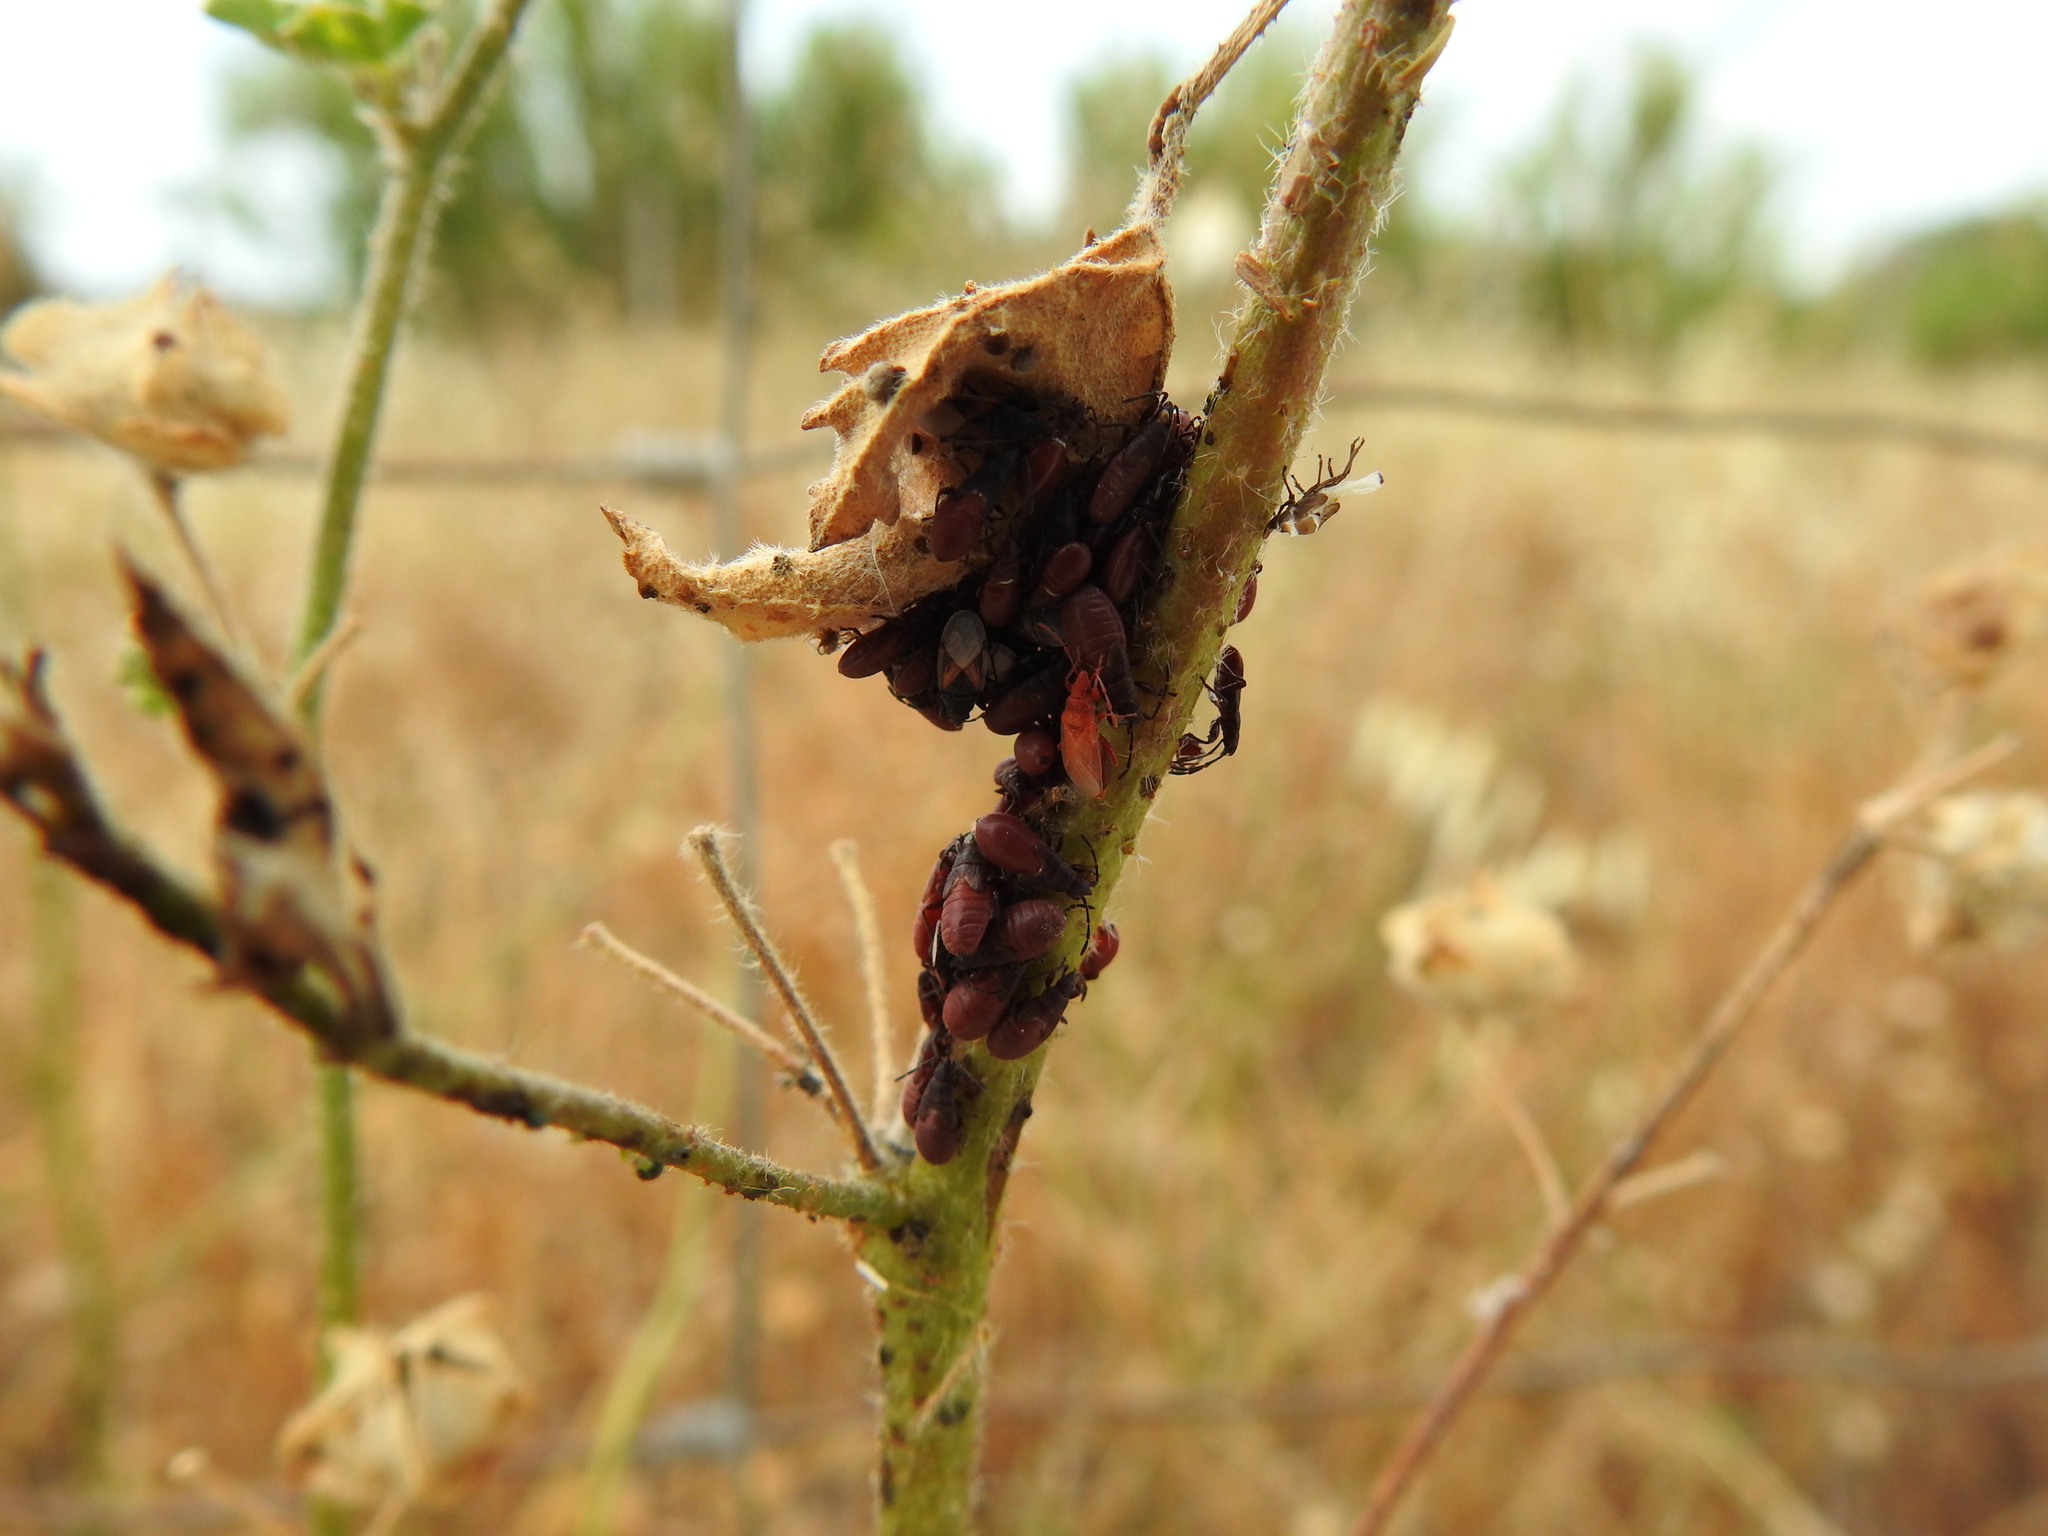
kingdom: Animalia
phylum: Arthropoda
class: Insecta
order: Hemiptera
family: Oxycarenidae
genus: Oxycarenus
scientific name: Oxycarenus lavaterae
